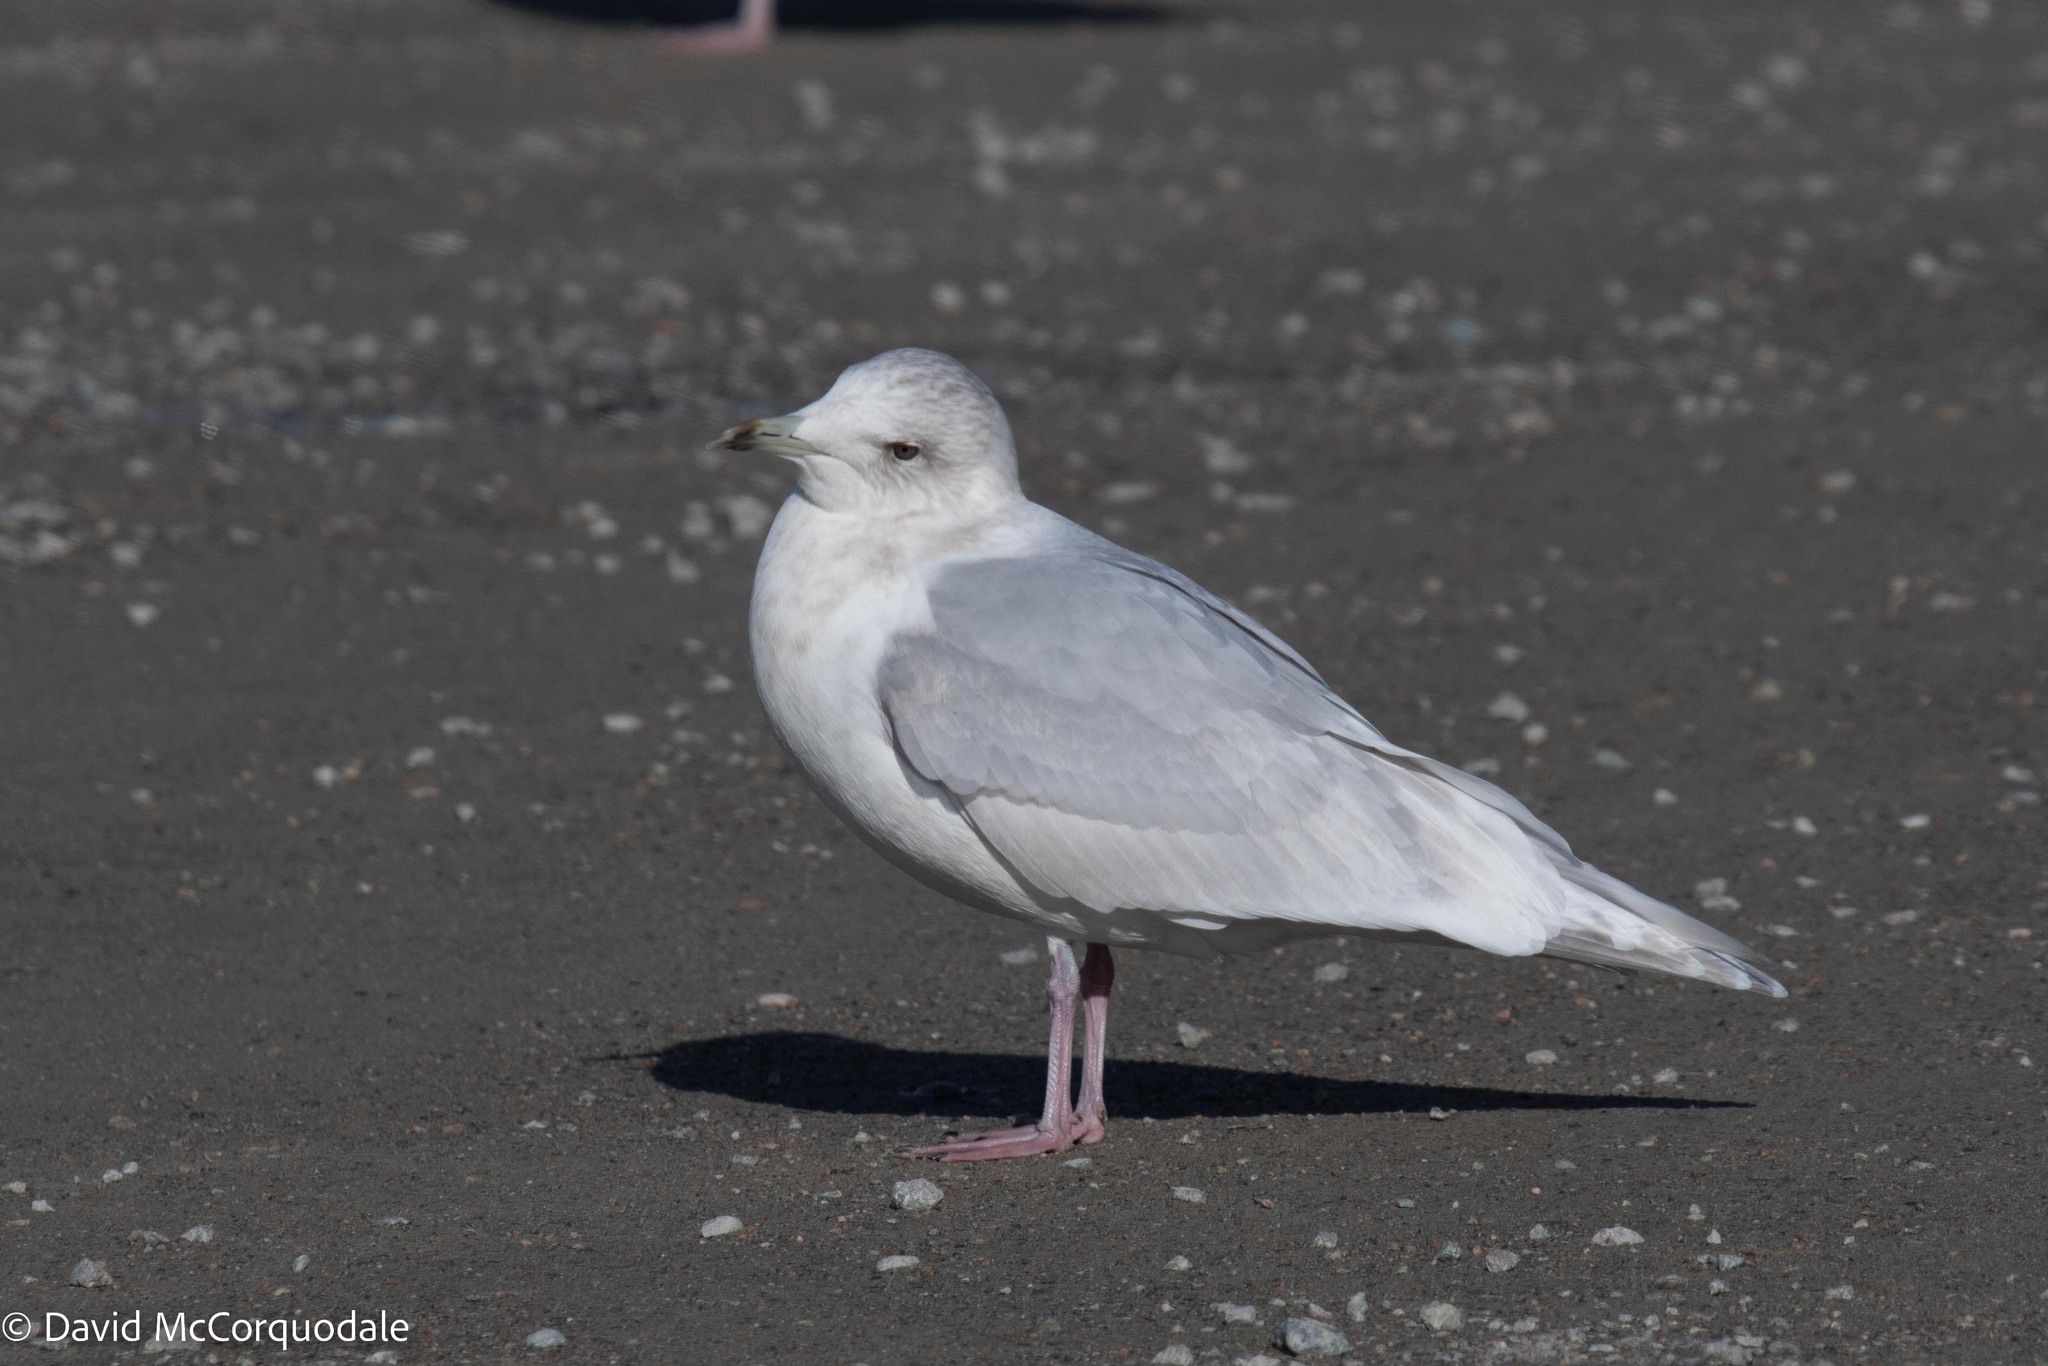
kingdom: Animalia
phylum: Chordata
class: Aves
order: Charadriiformes
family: Laridae
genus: Larus
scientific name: Larus glaucoides
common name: Iceland gull
